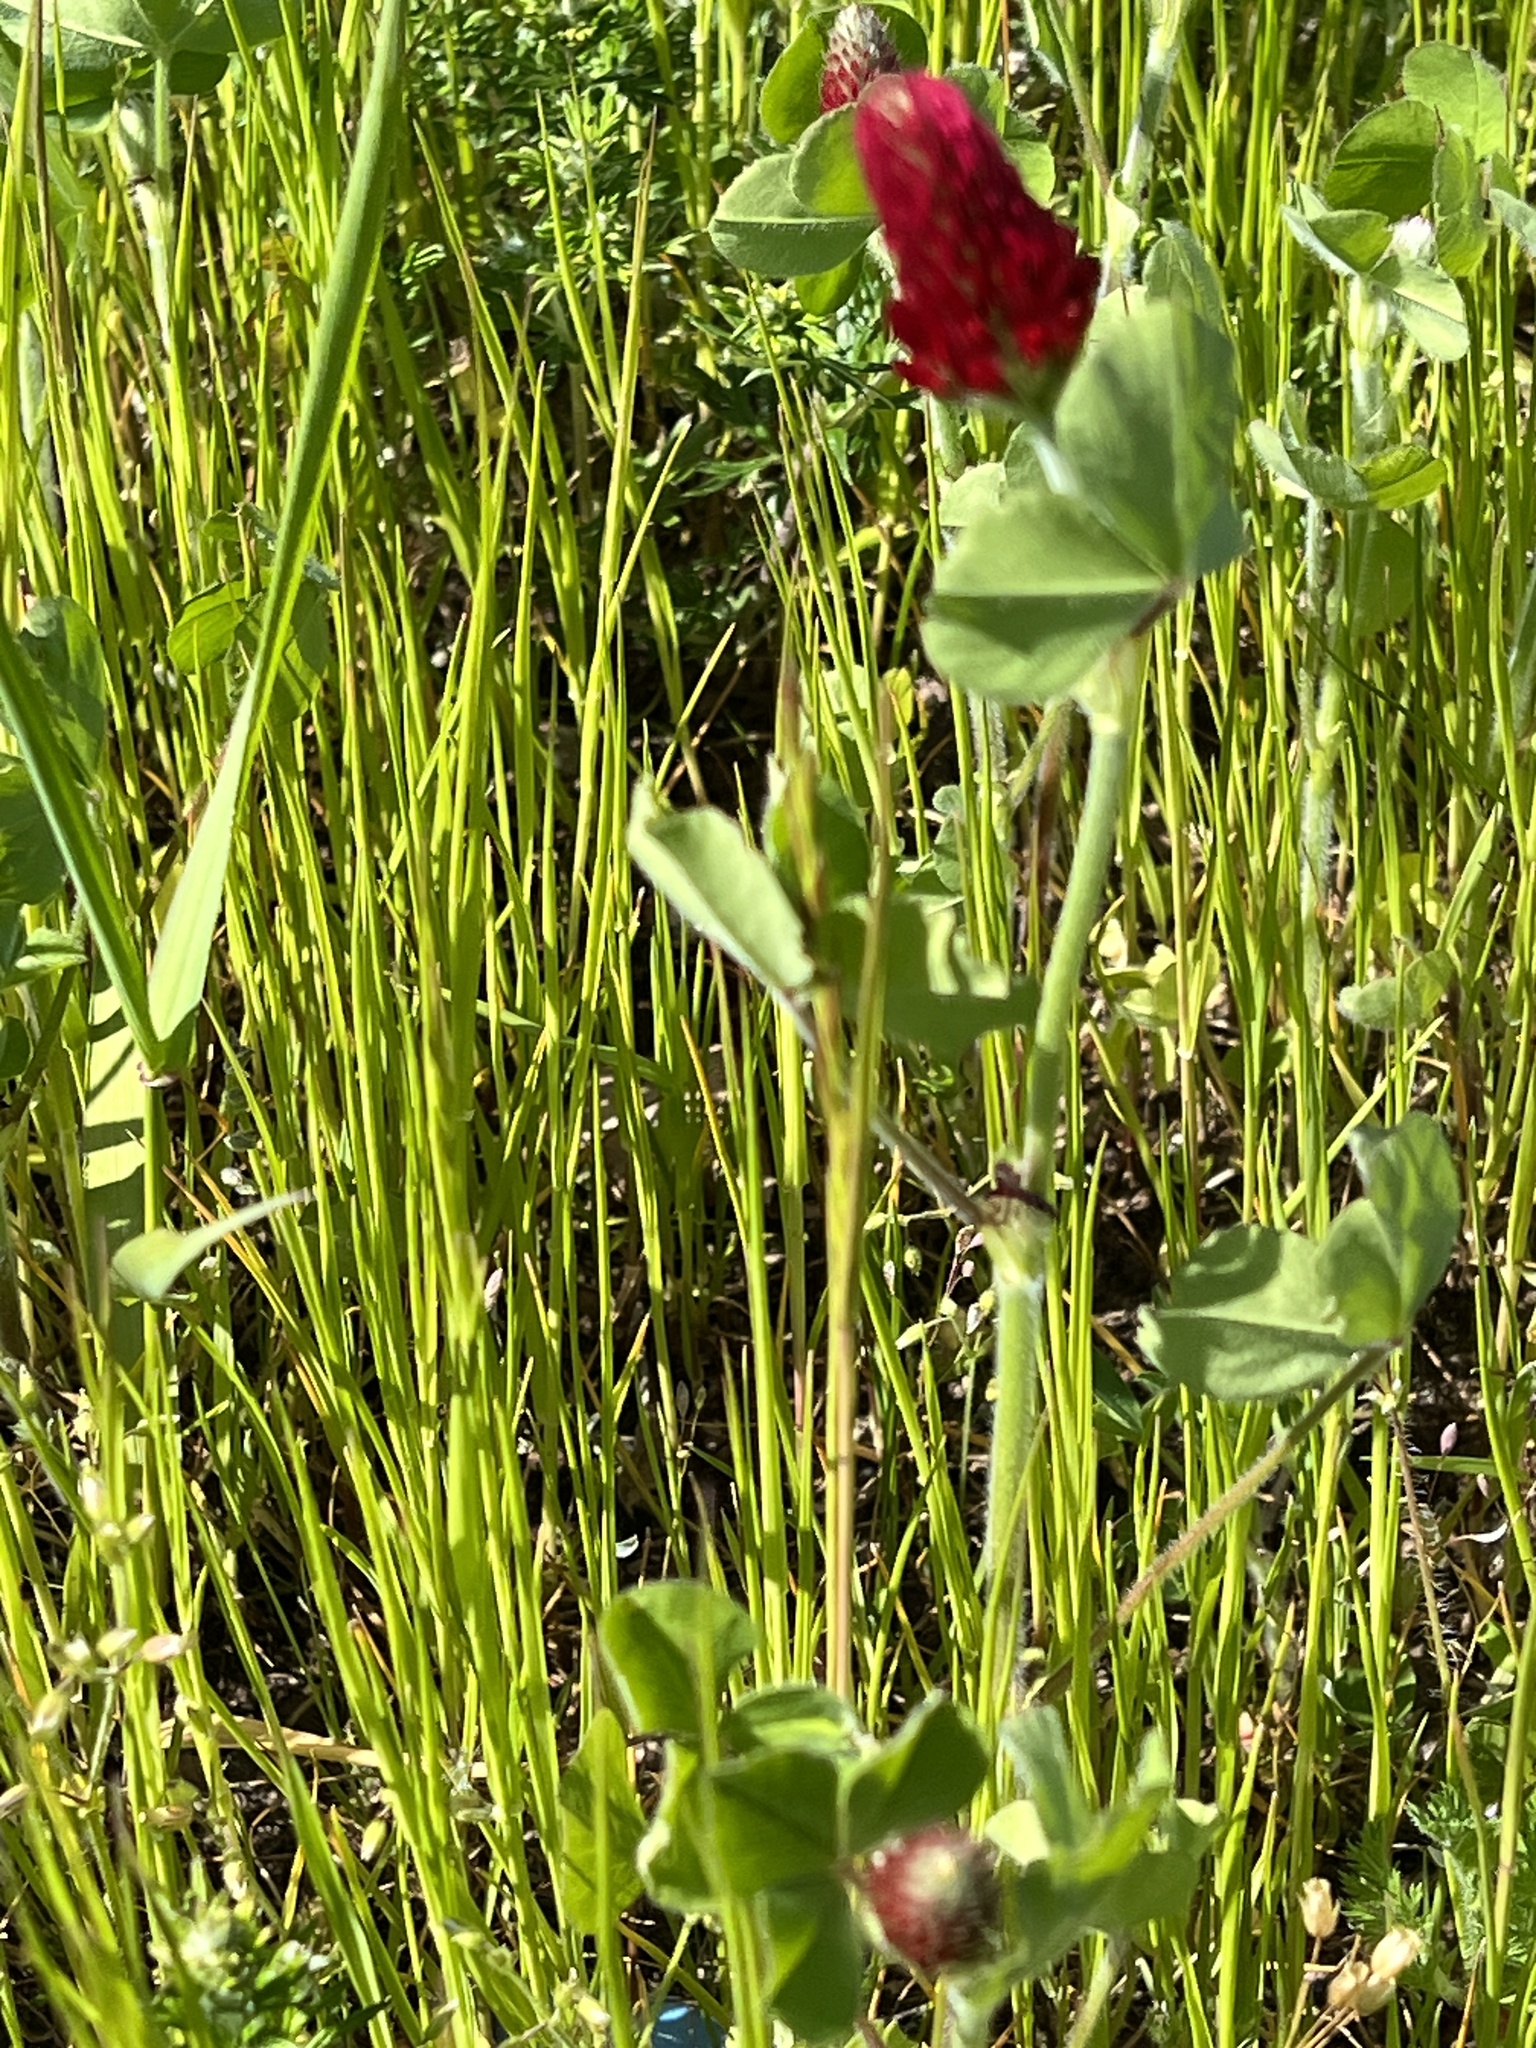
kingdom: Plantae
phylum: Tracheophyta
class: Magnoliopsida
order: Fabales
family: Fabaceae
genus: Trifolium
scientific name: Trifolium incarnatum
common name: Crimson clover
